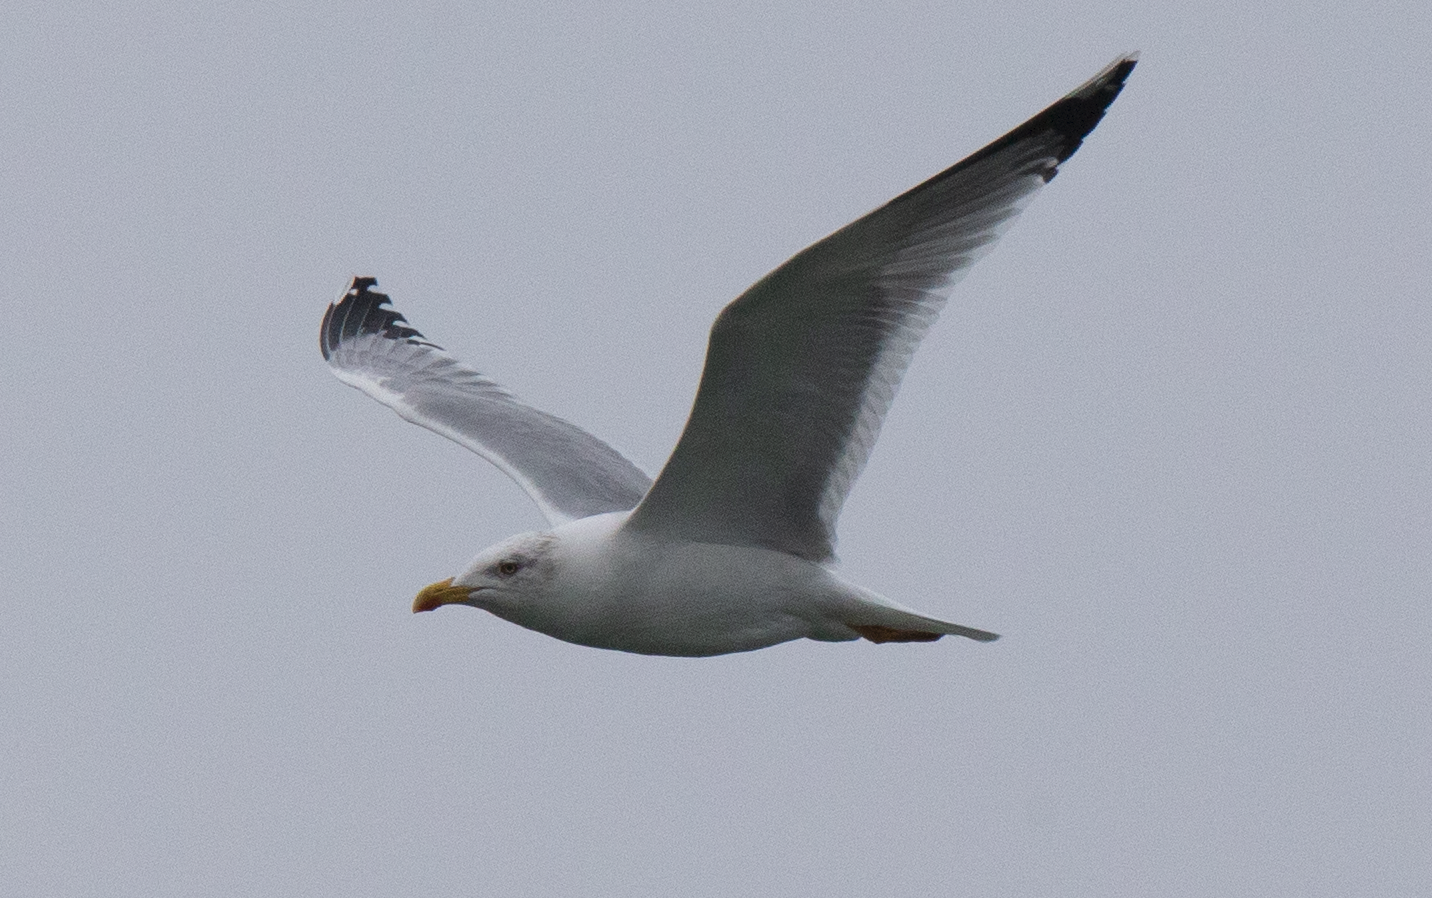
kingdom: Animalia
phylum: Chordata
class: Aves
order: Charadriiformes
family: Laridae
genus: Larus
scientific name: Larus michahellis
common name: Yellow-legged gull
